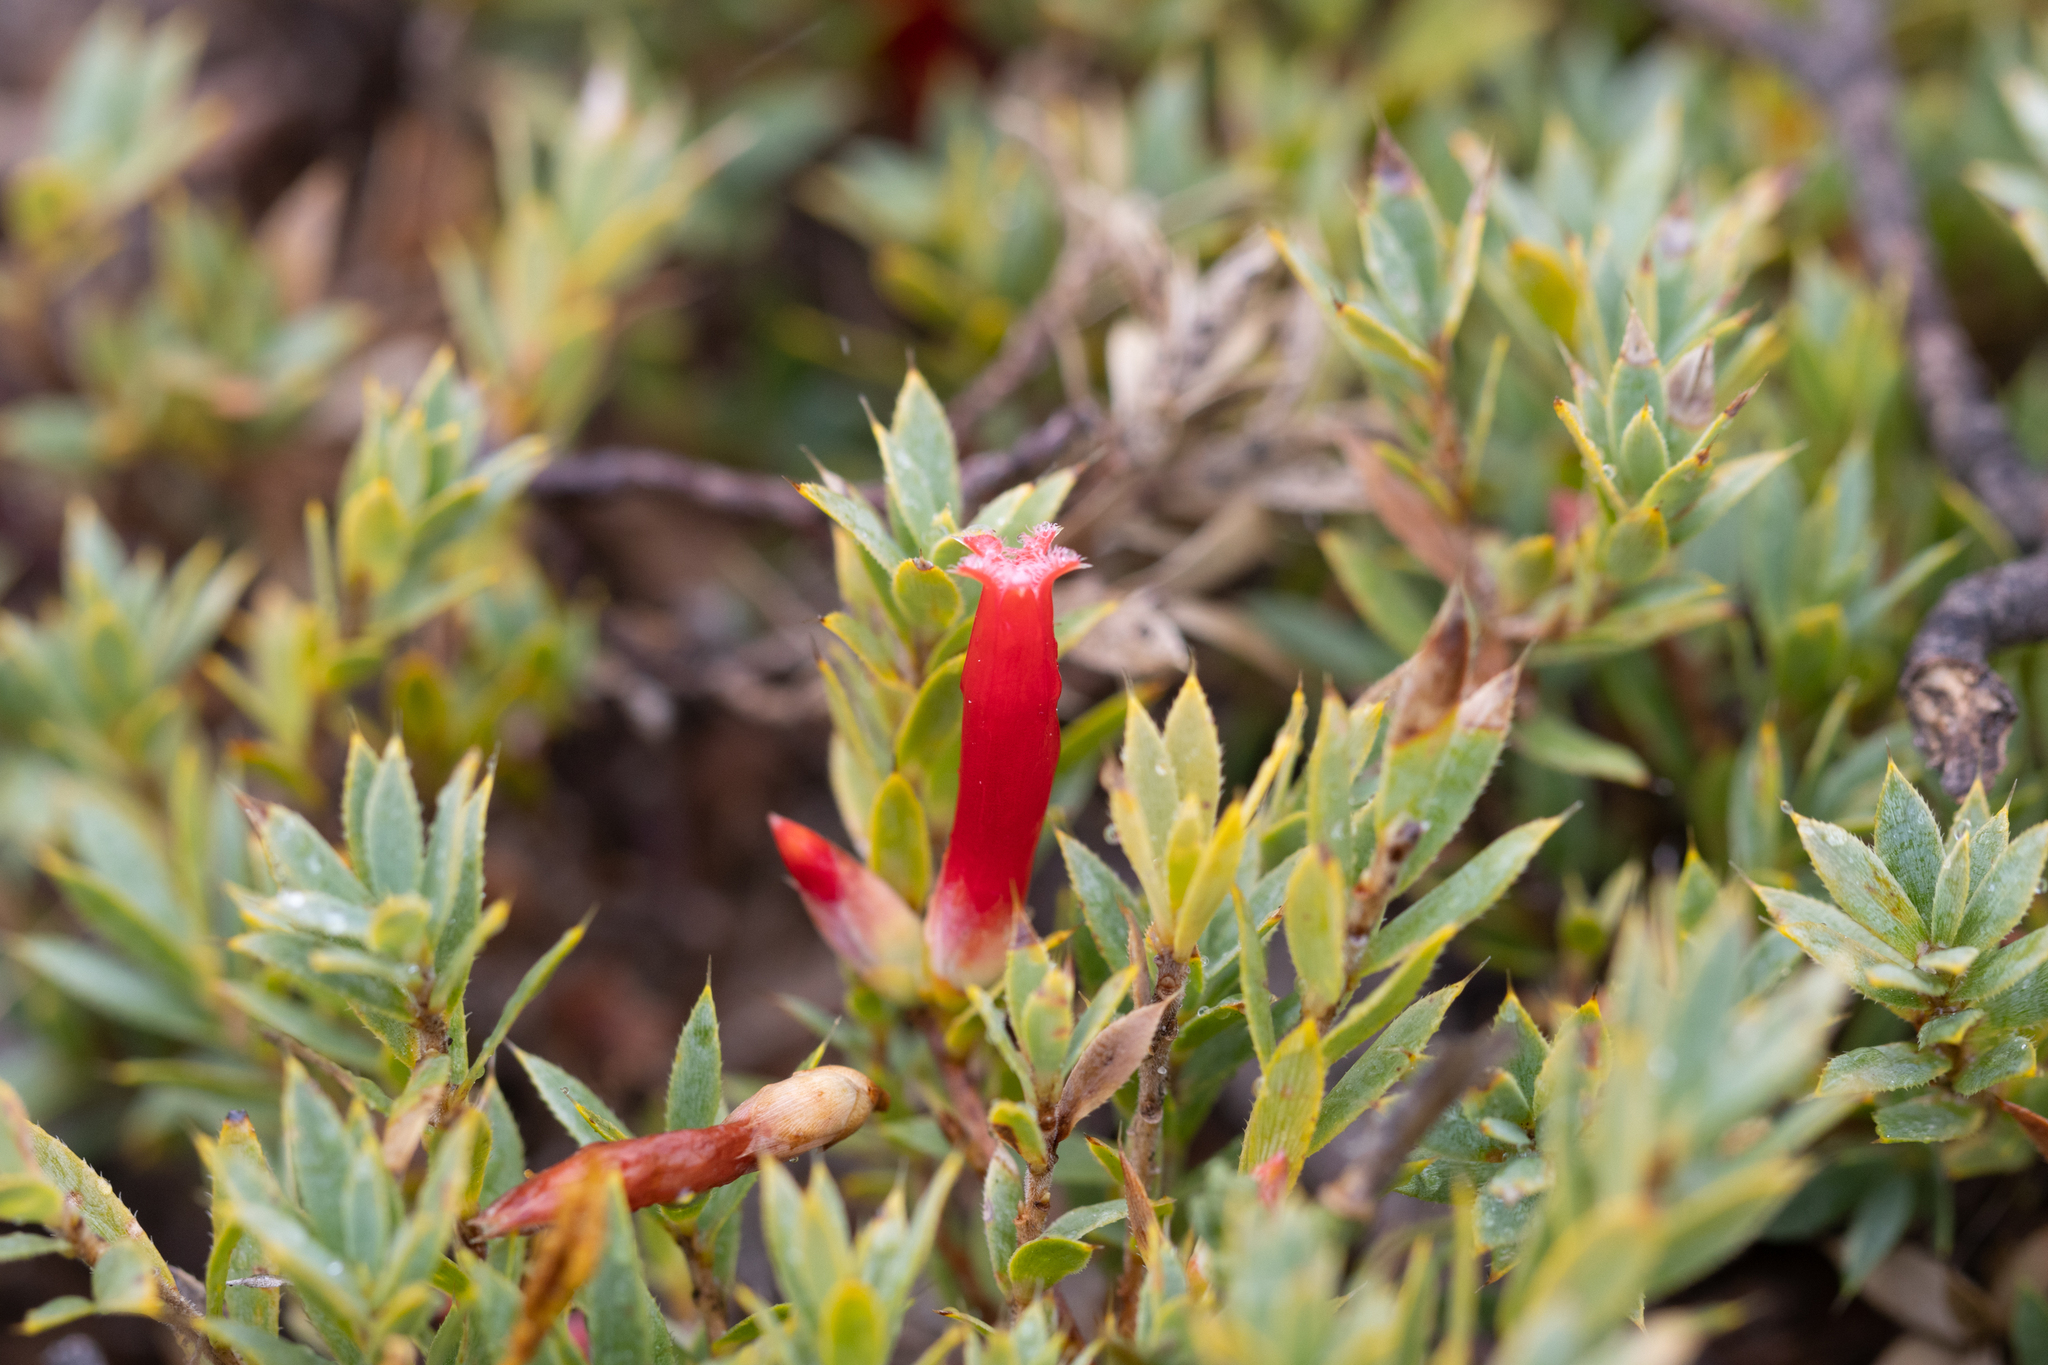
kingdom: Plantae
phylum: Tracheophyta
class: Magnoliopsida
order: Ericales
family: Ericaceae
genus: Styphelia
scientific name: Styphelia humifusa
